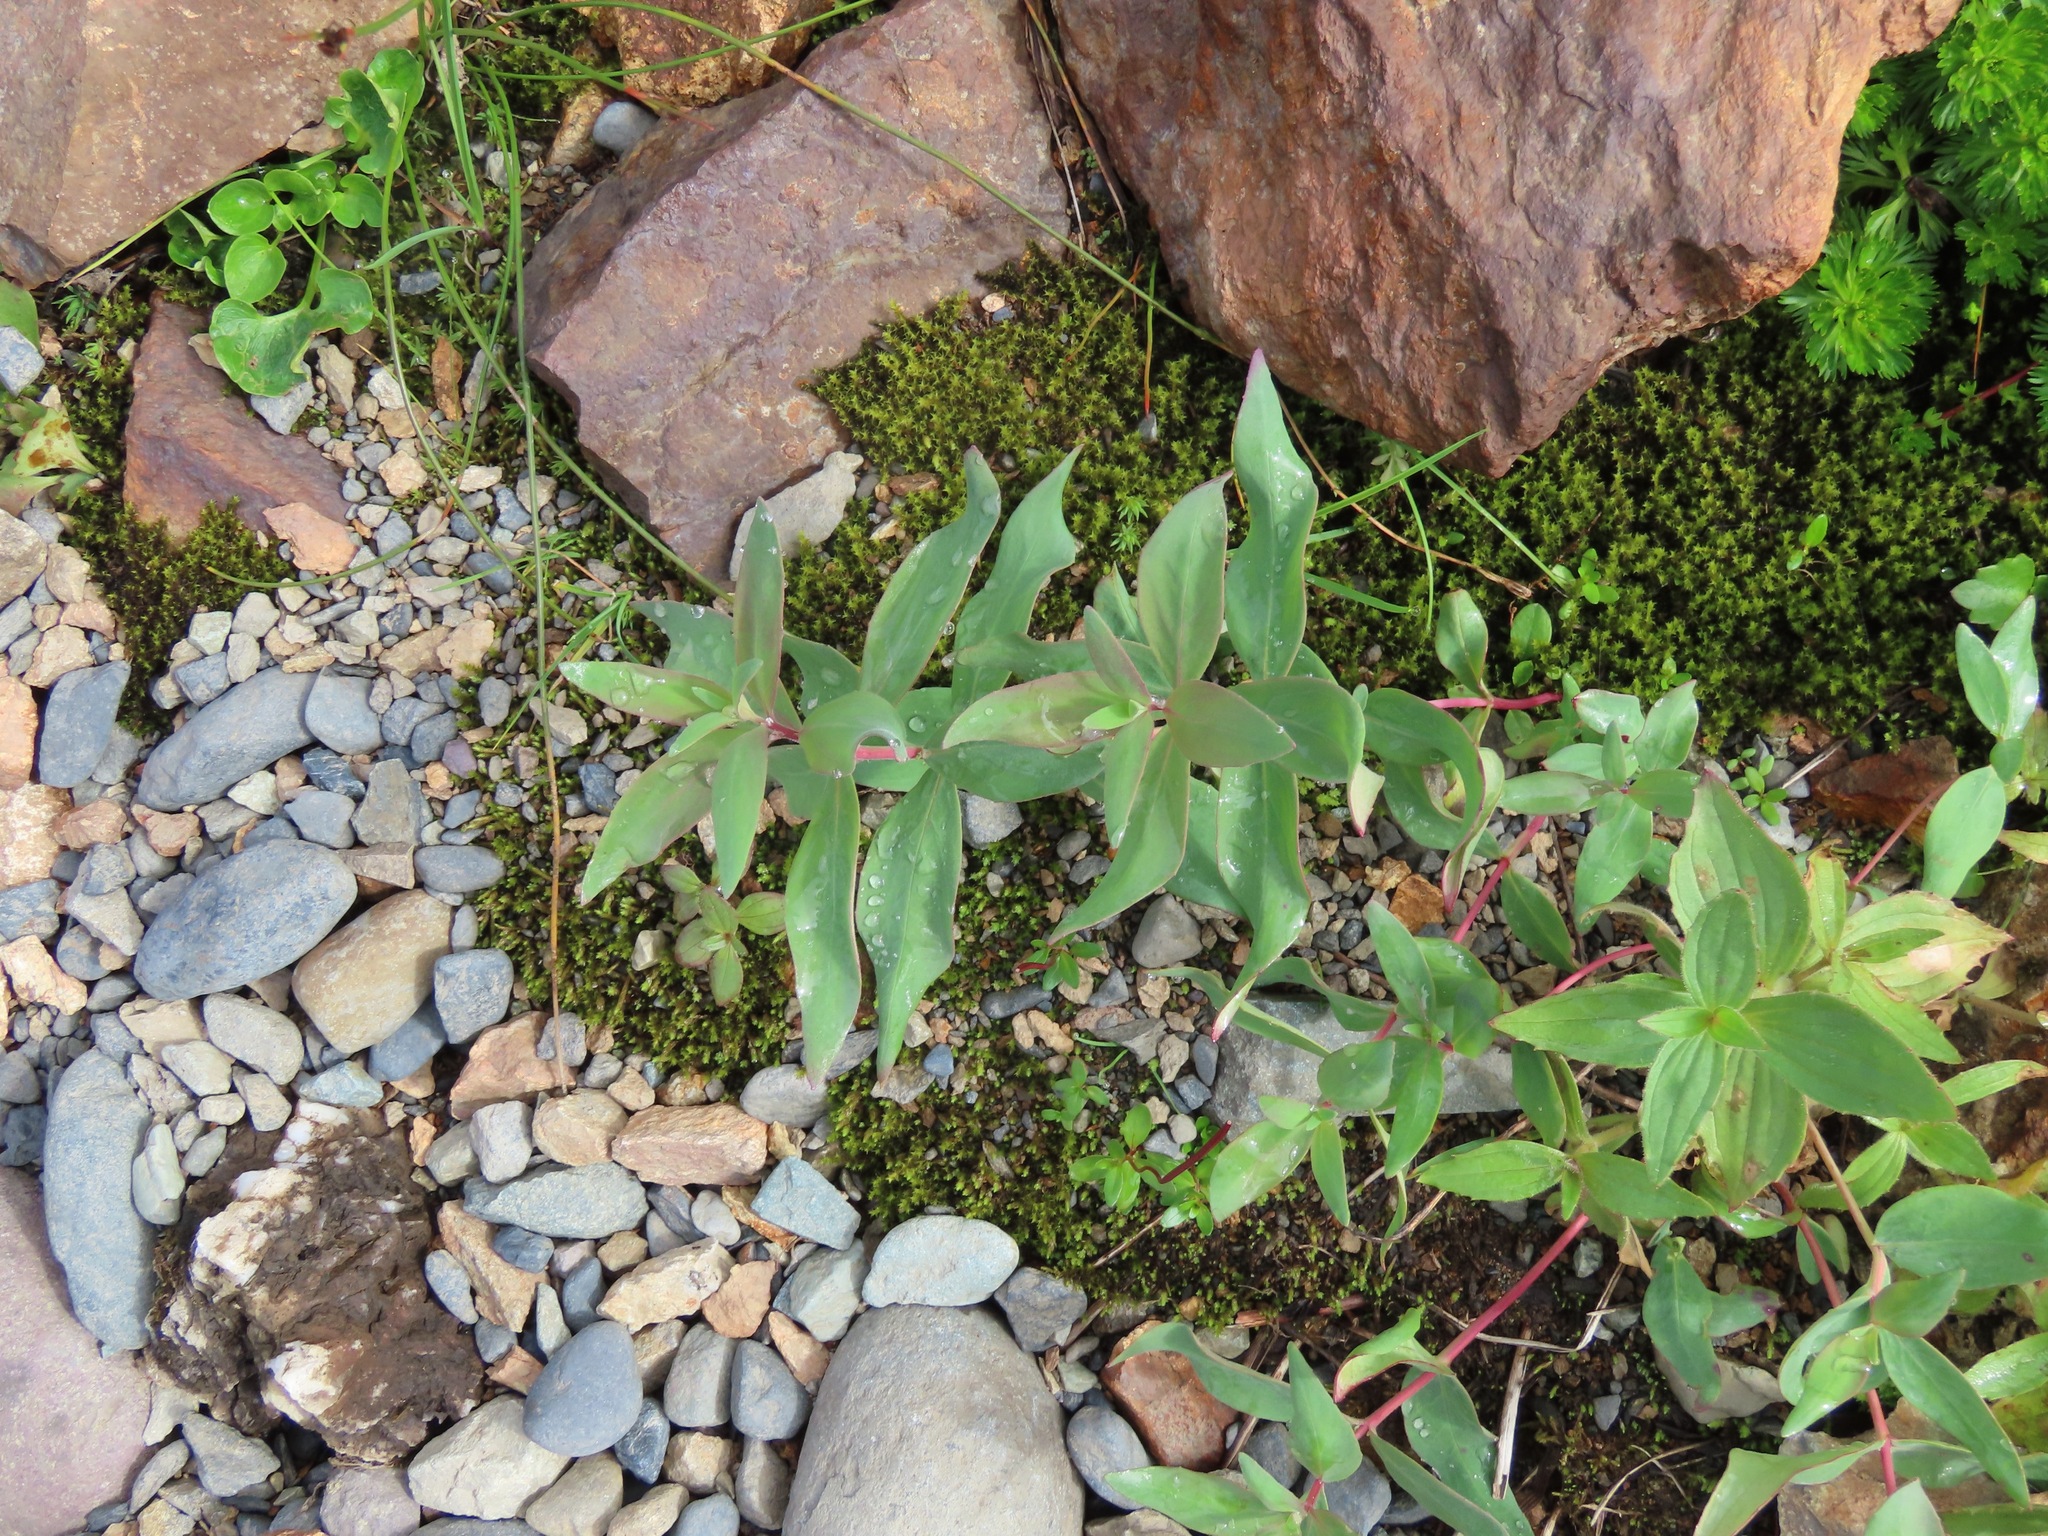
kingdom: Plantae
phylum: Tracheophyta
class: Magnoliopsida
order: Myrtales
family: Onagraceae
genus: Chamaenerion
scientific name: Chamaenerion latifolium
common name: Dwarf fireweed
